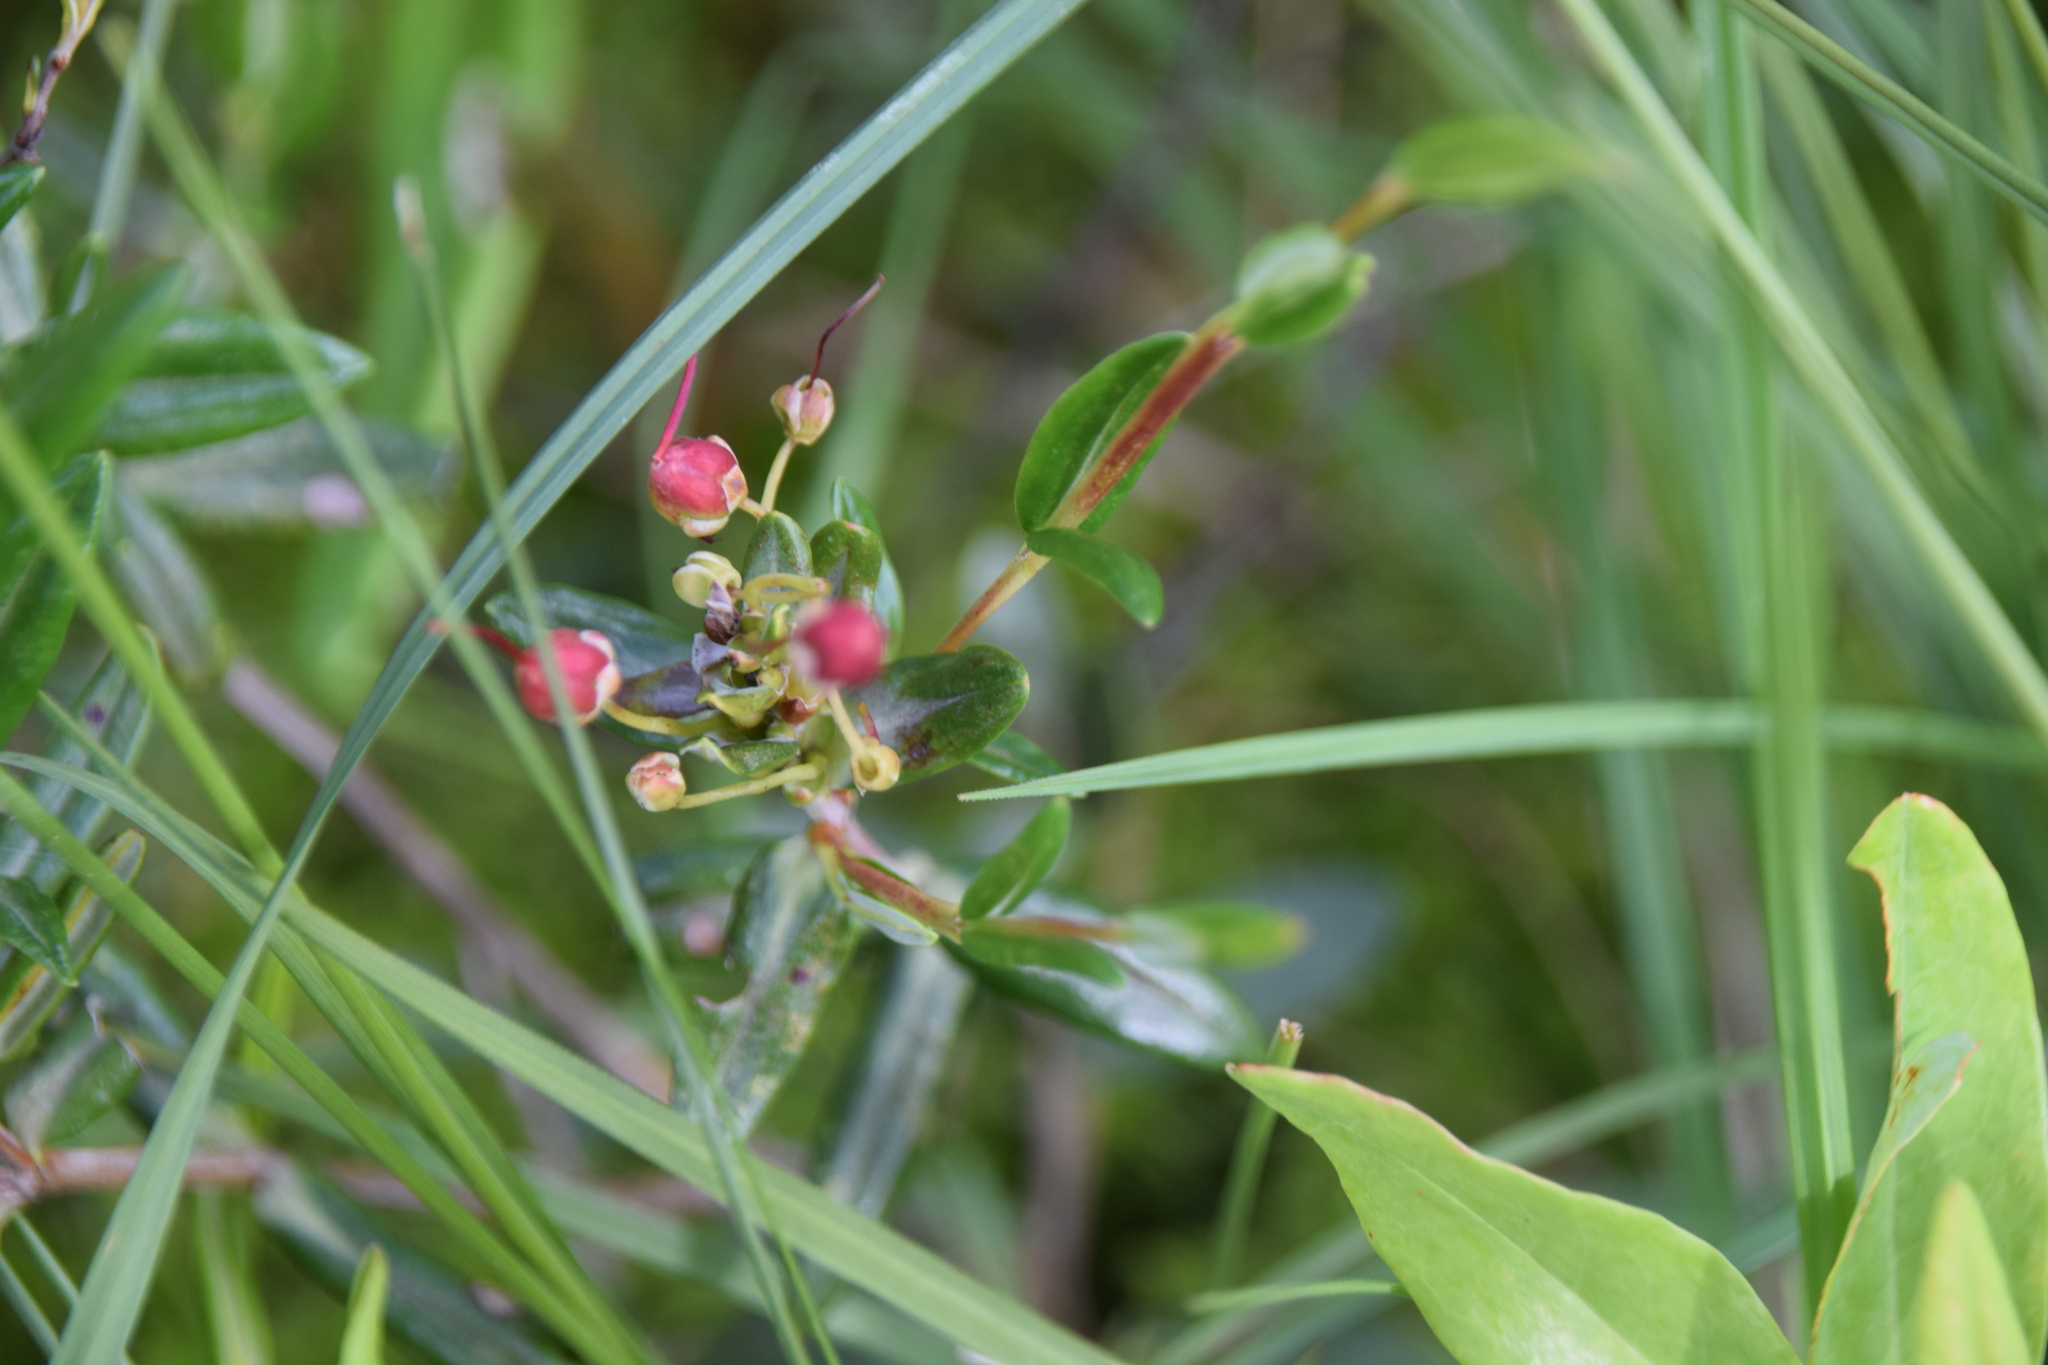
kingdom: Plantae
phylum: Tracheophyta
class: Magnoliopsida
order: Ericales
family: Ericaceae
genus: Kalmia
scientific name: Kalmia polifolia
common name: Bog-laurel
